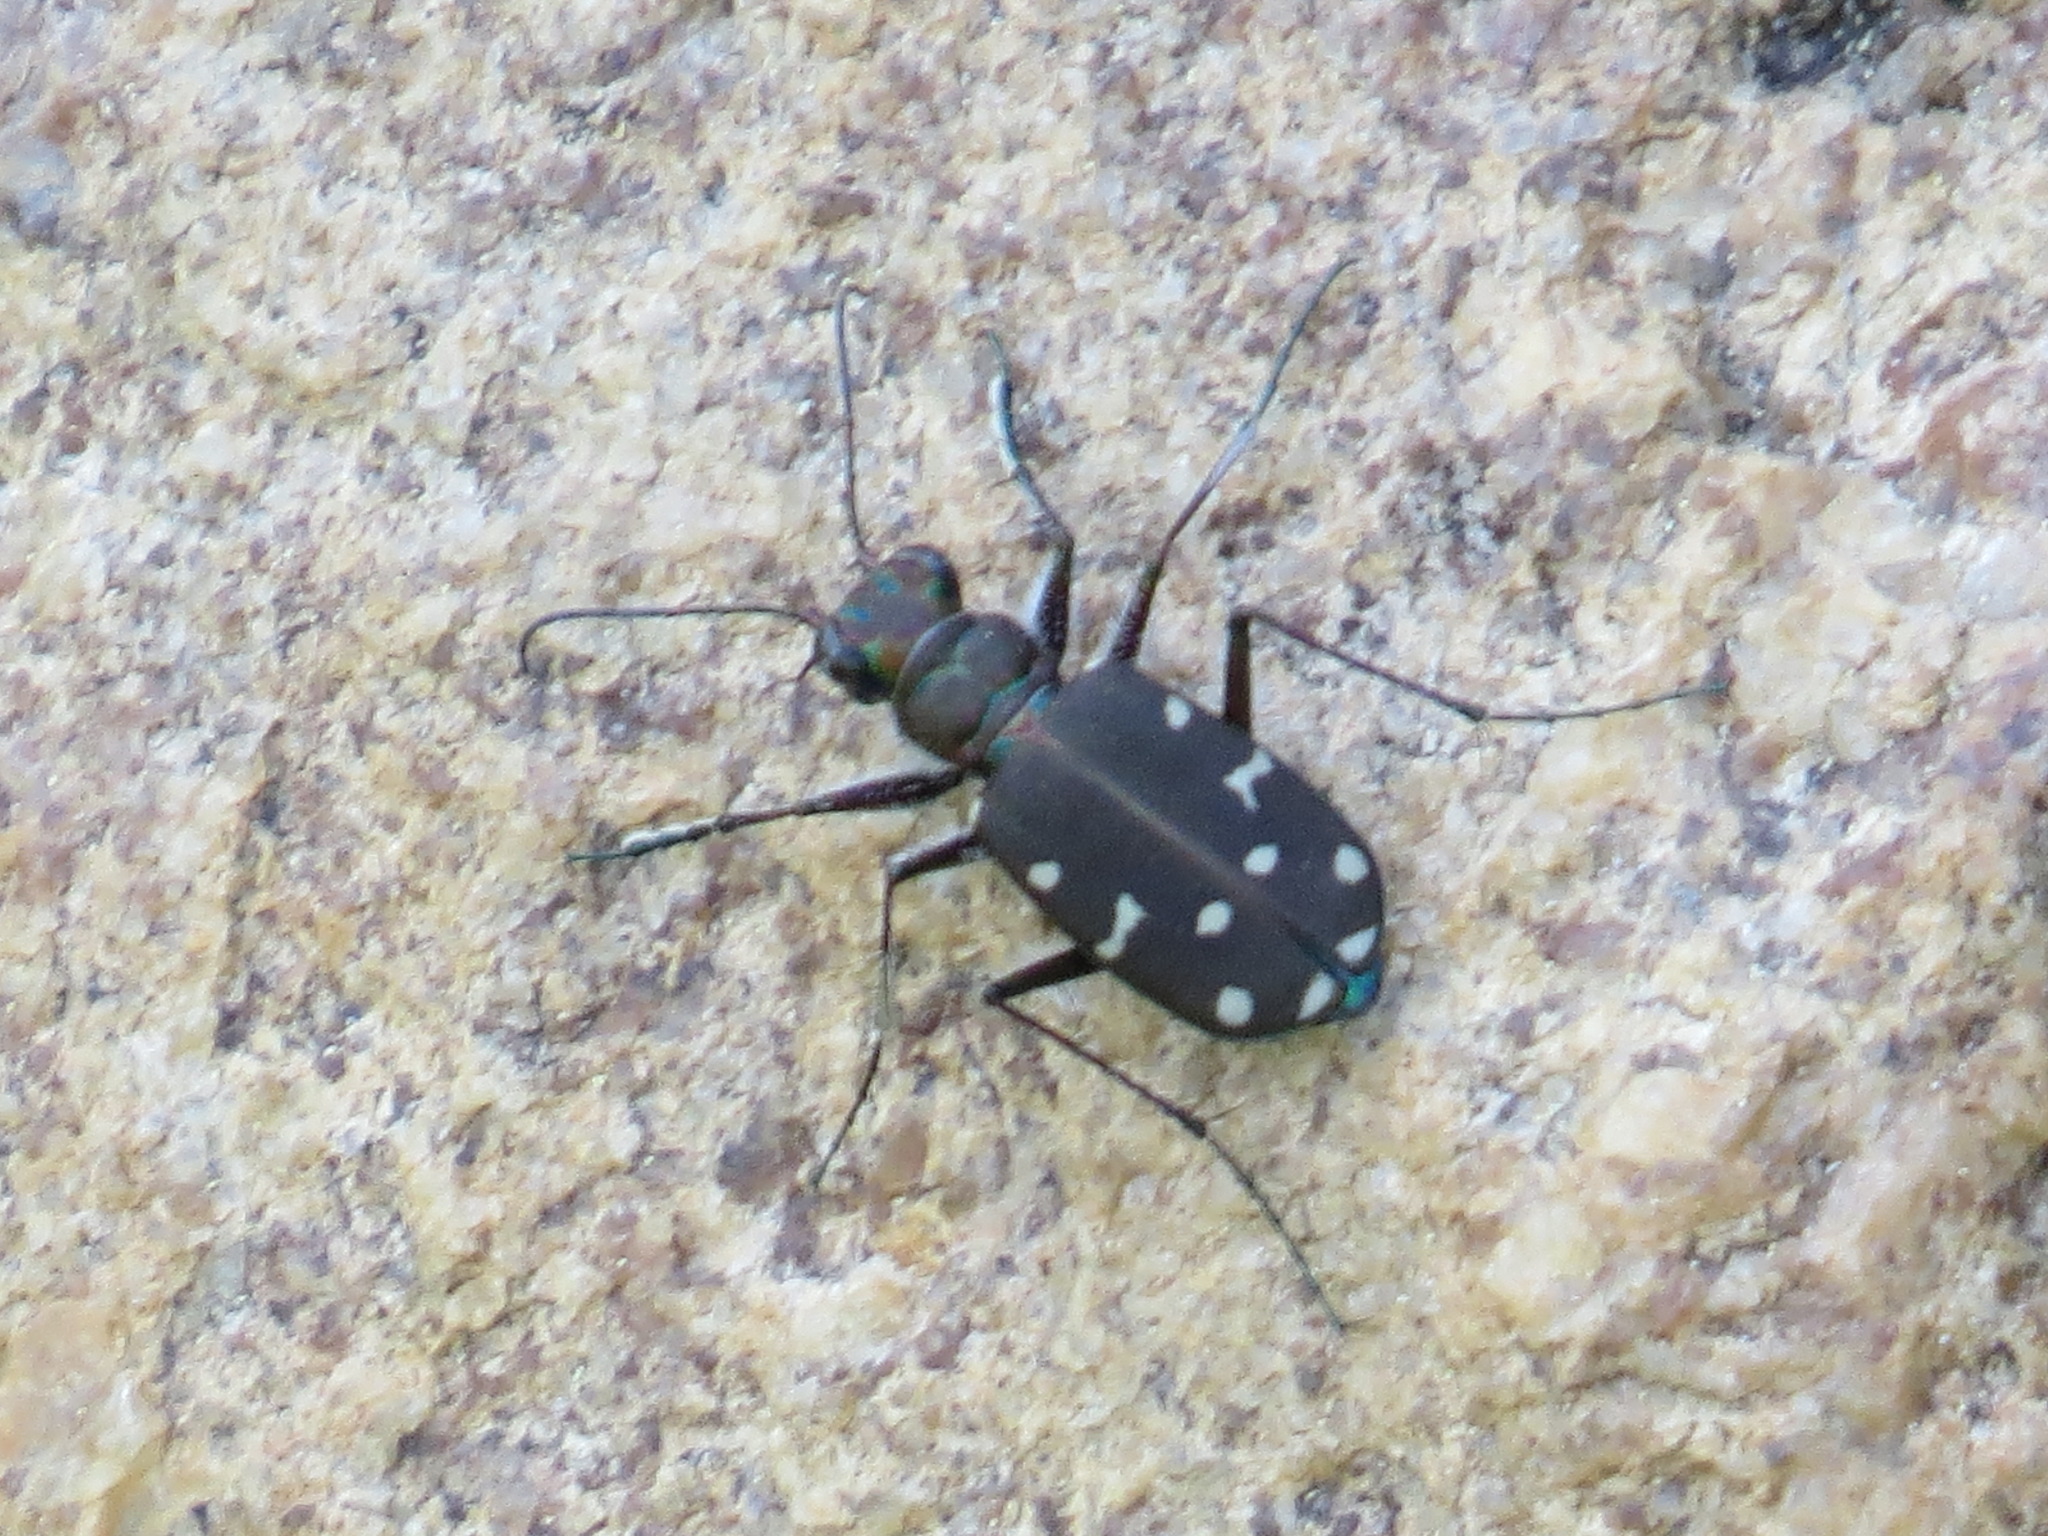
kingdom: Animalia
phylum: Arthropoda
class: Insecta
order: Coleoptera
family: Carabidae
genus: Cicindela
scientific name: Cicindela oregona
